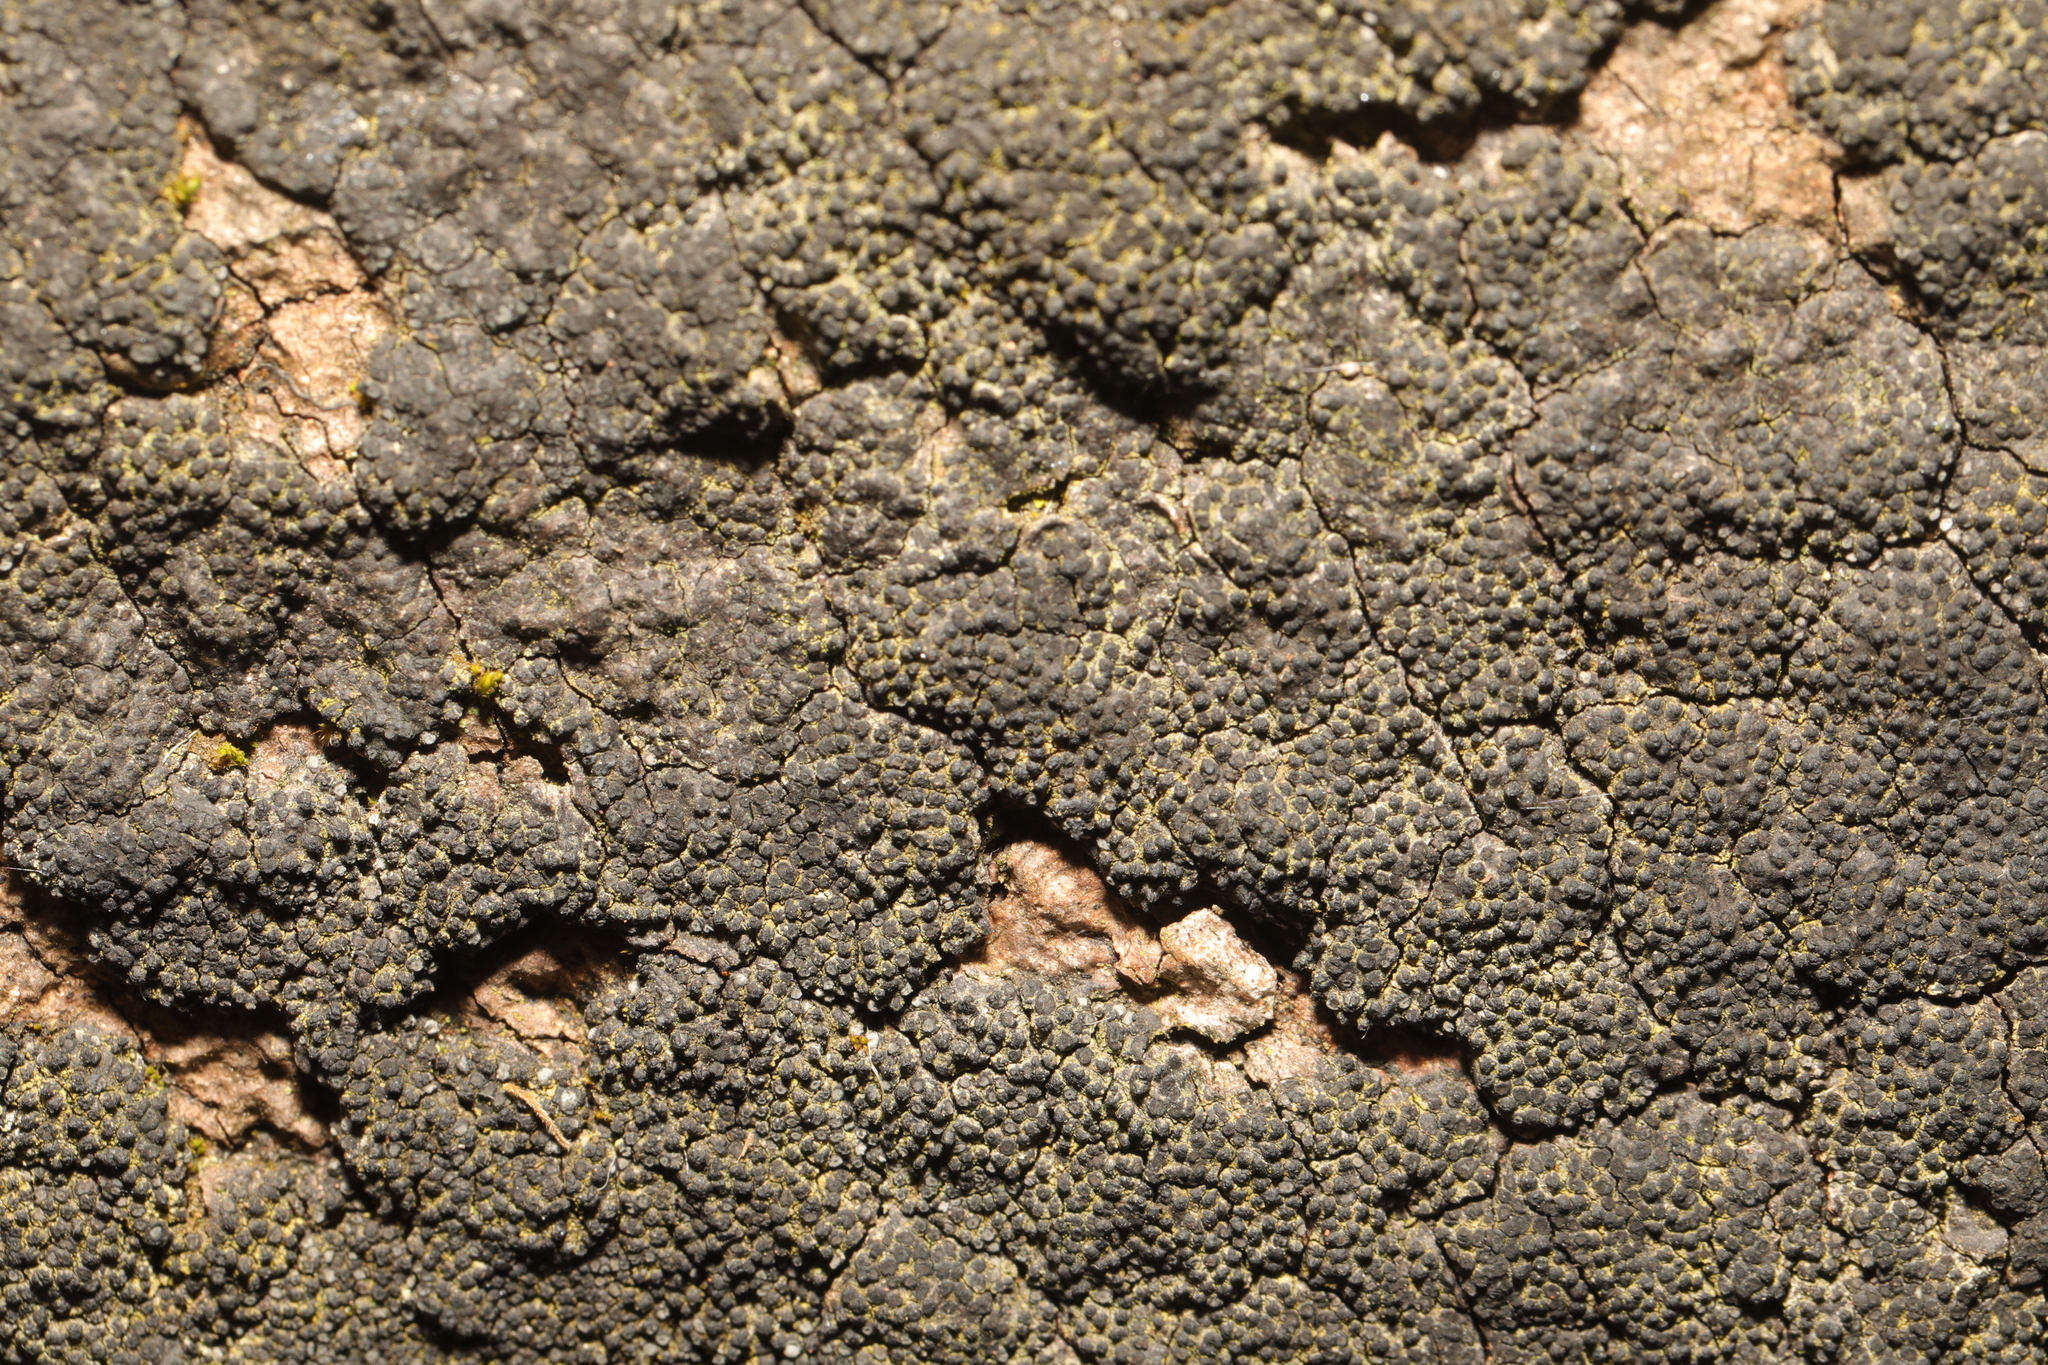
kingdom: Fungi
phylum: Ascomycota
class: Sordariomycetes
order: Xylariales
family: Graphostromataceae
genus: Biscogniauxia
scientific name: Biscogniauxia nummularia
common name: Beech tarcrust
